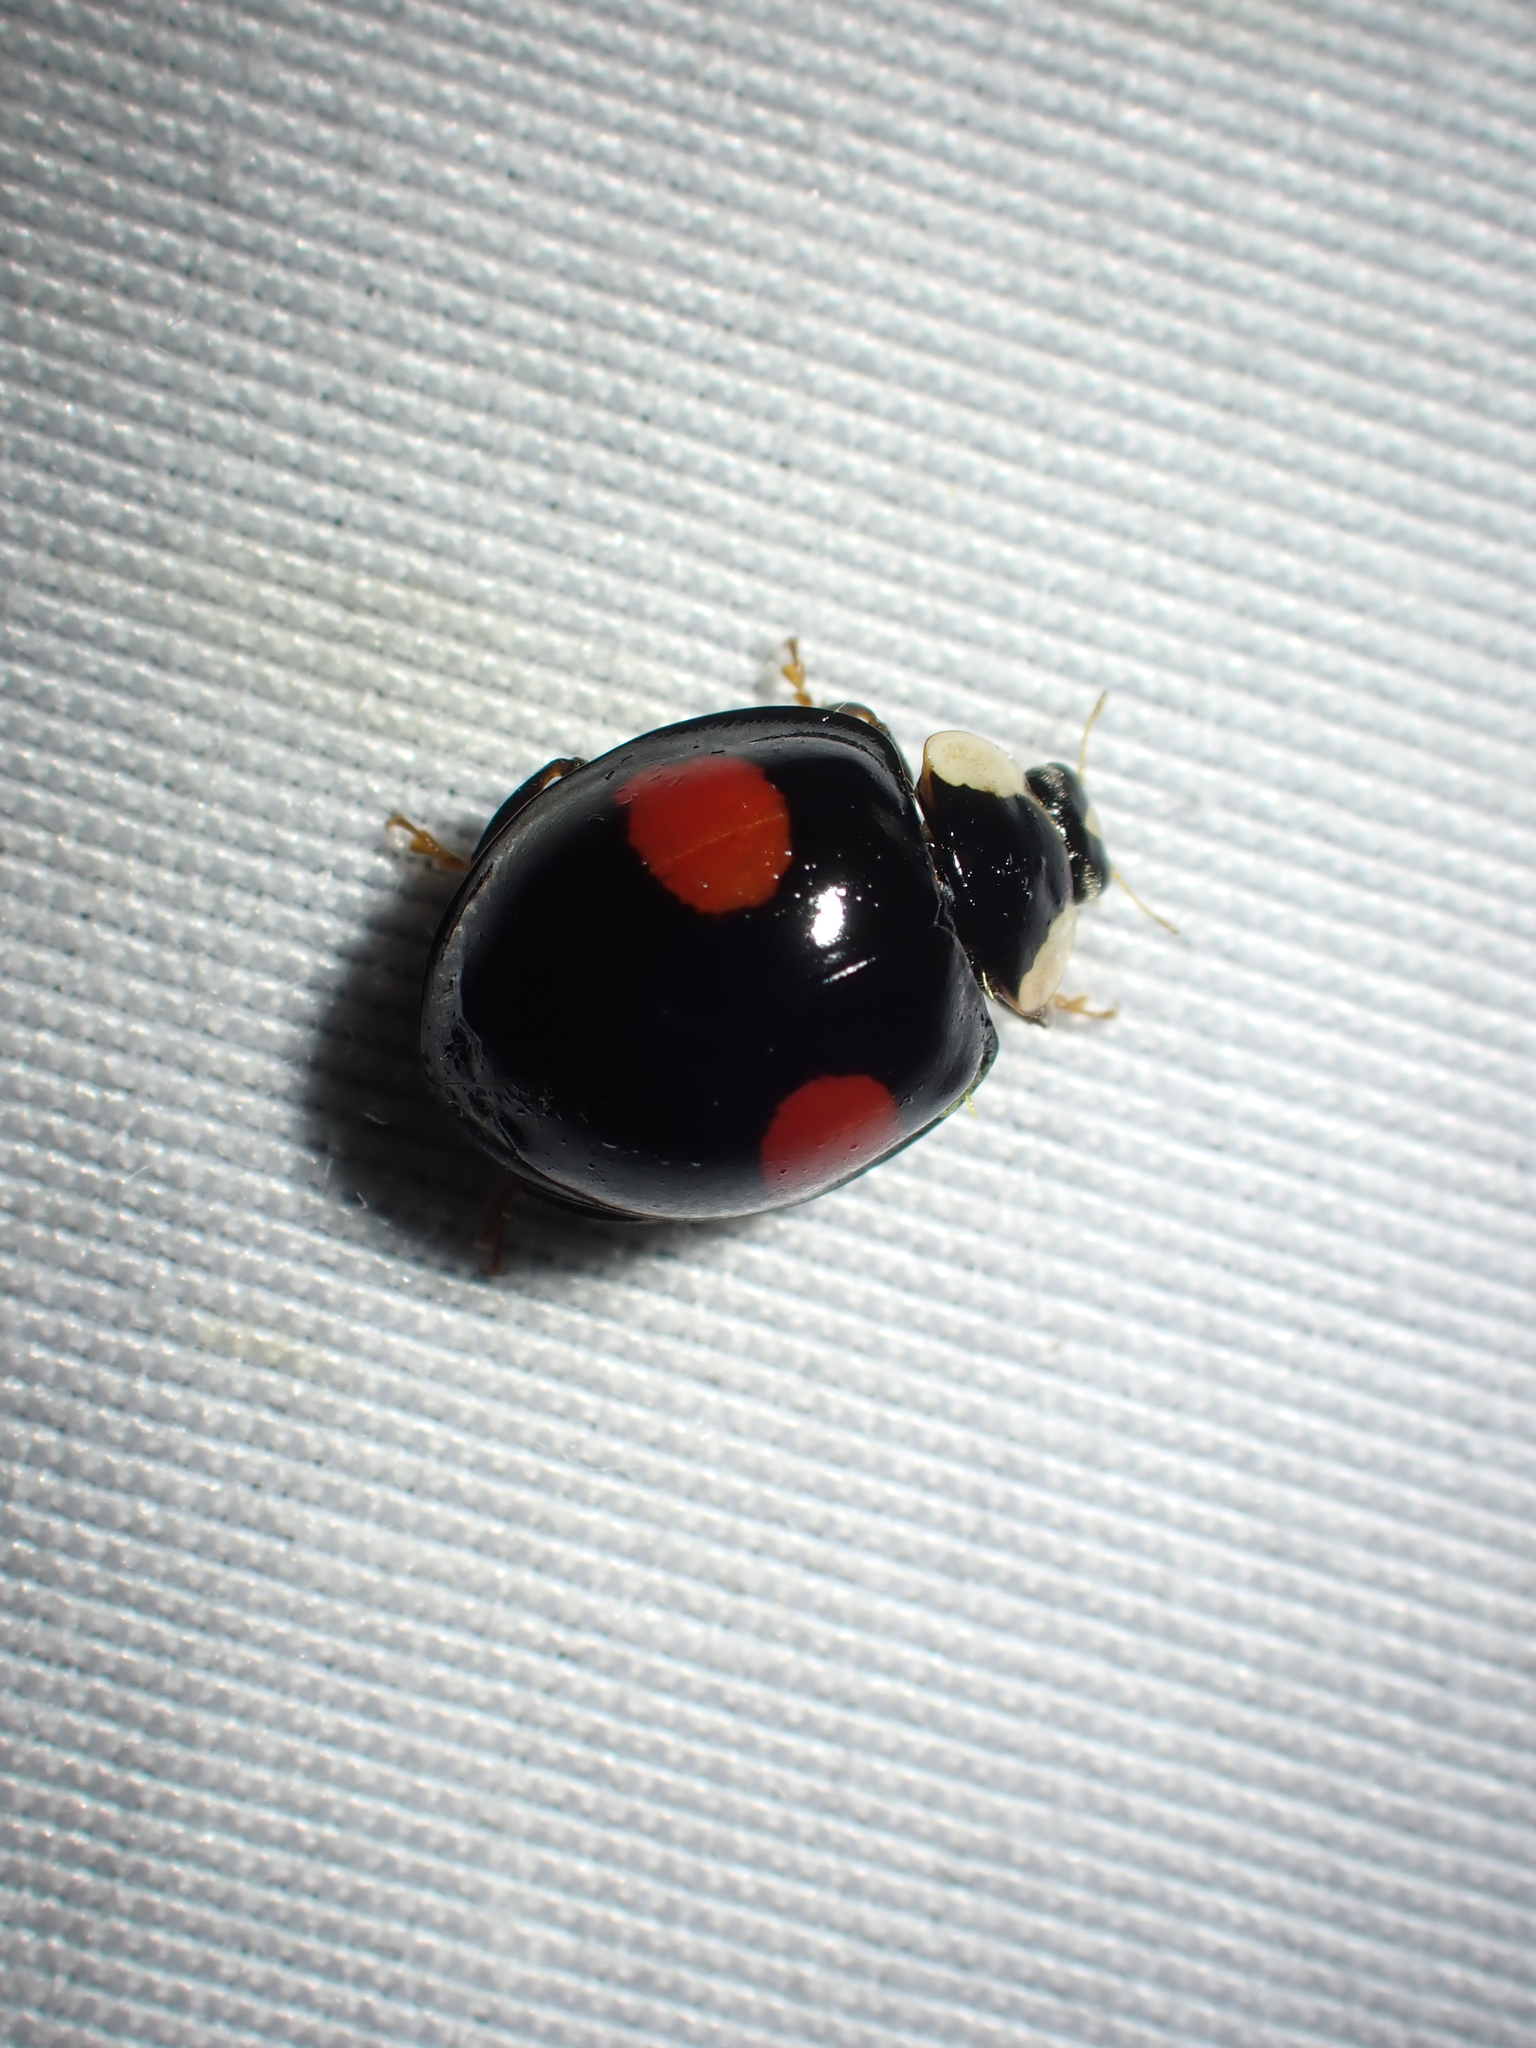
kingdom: Animalia
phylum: Arthropoda
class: Insecta
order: Coleoptera
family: Coccinellidae
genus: Harmonia
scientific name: Harmonia axyridis
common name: Harlequin ladybird
